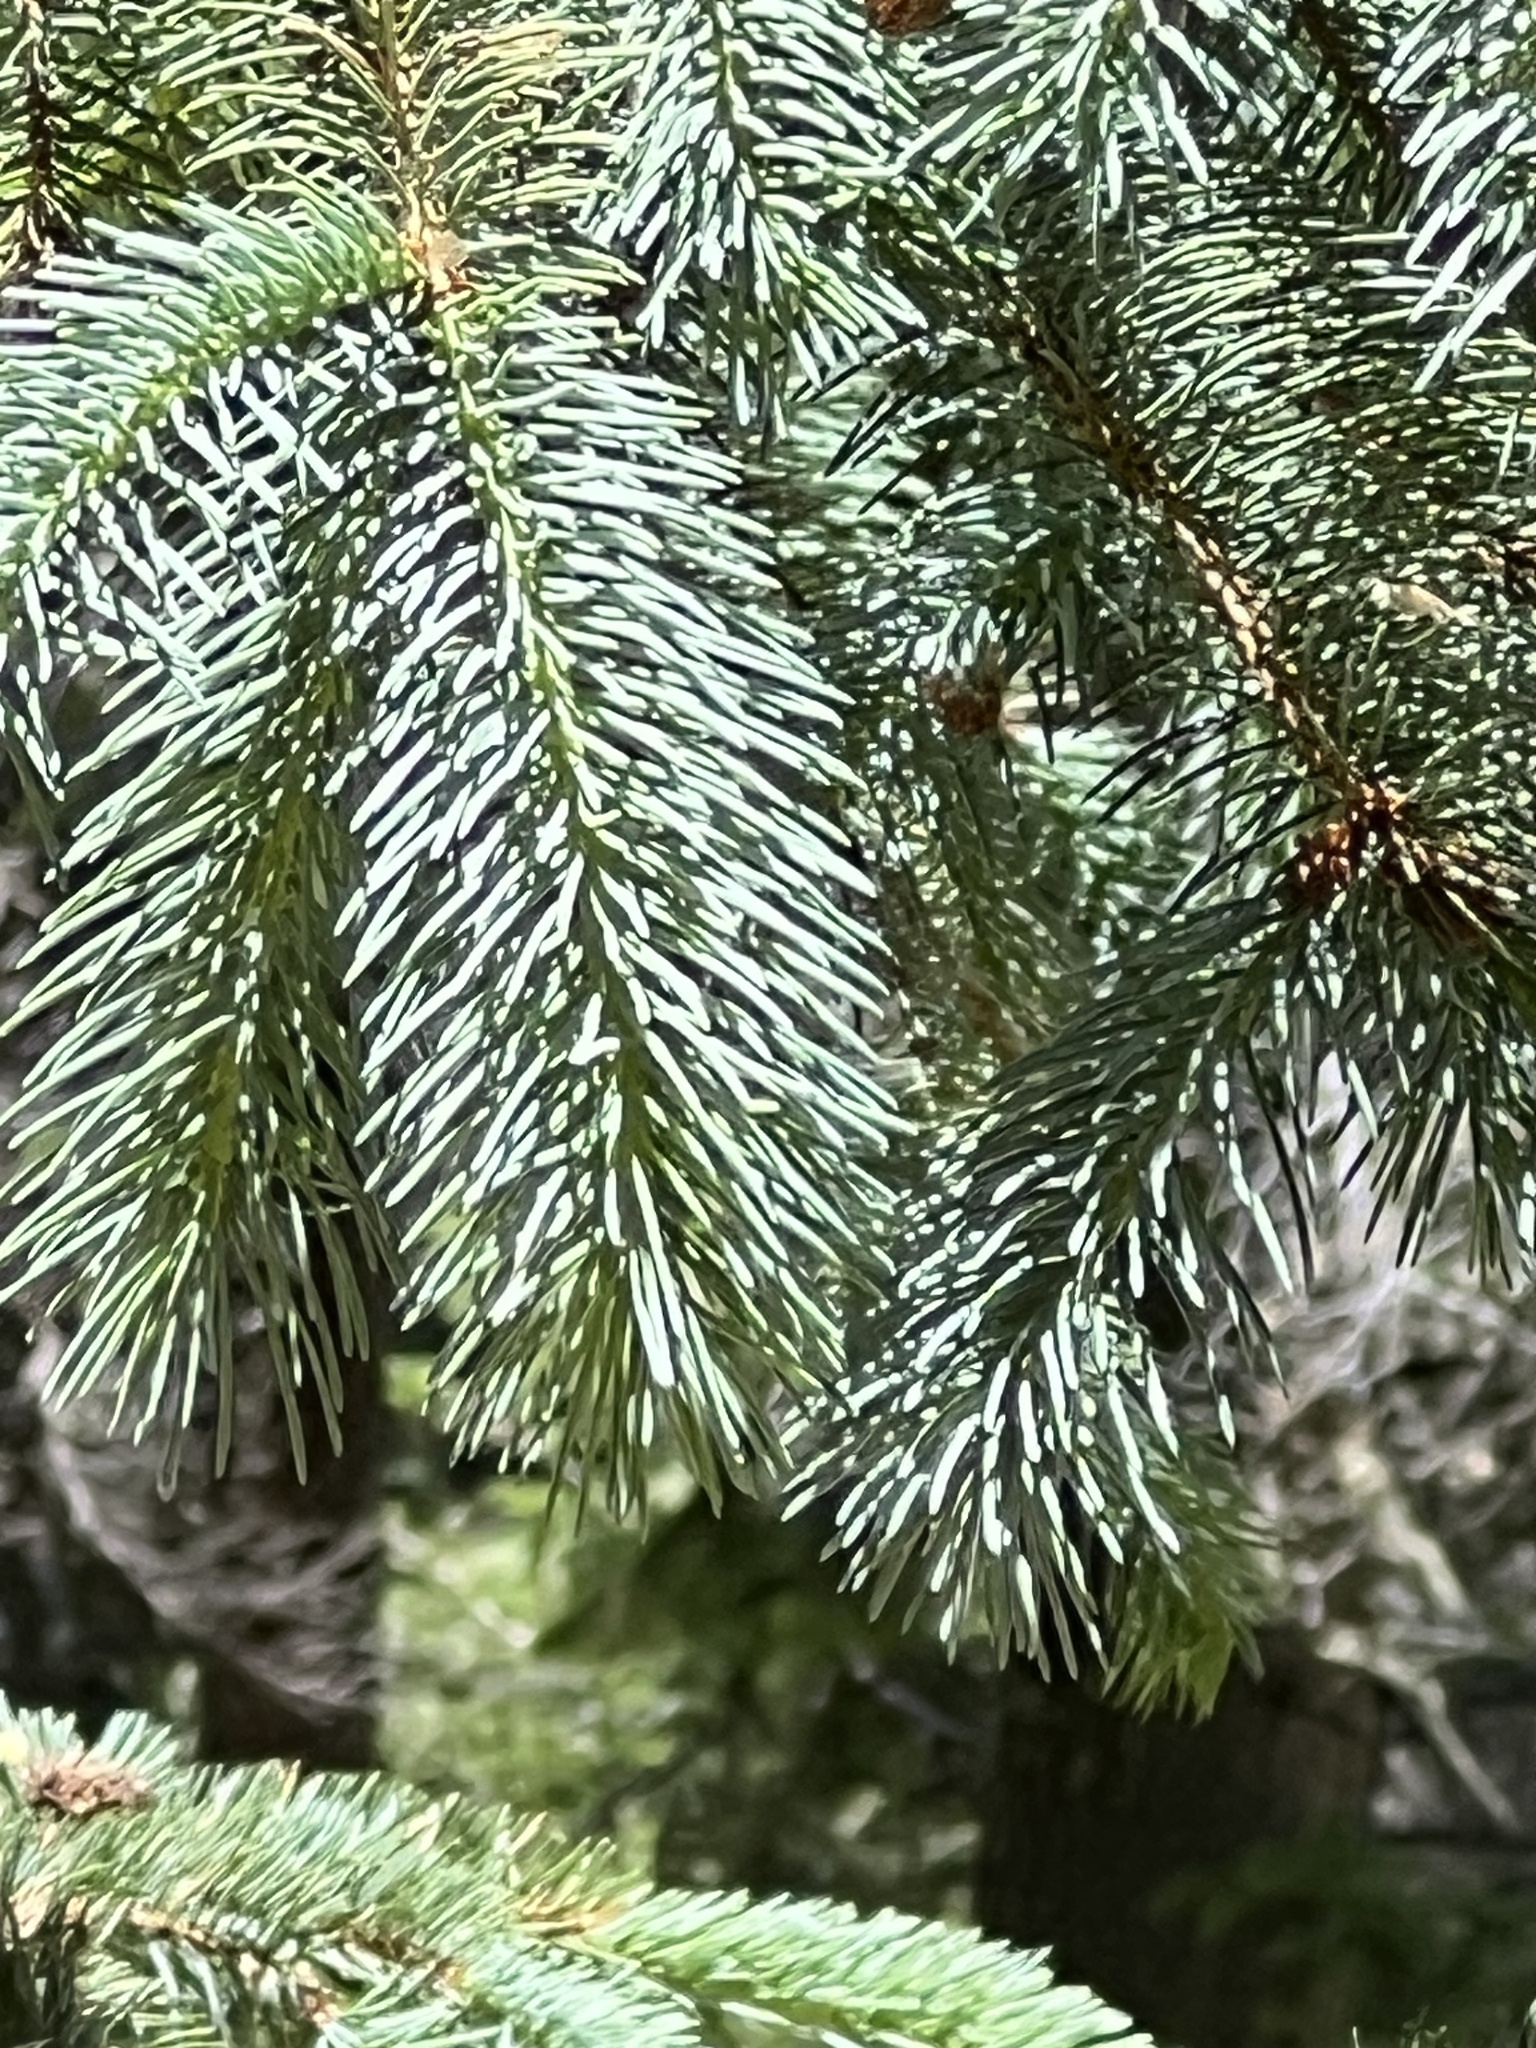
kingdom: Plantae
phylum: Tracheophyta
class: Pinopsida
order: Pinales
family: Pinaceae
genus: Picea
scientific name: Picea engelmannii
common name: Engelmann spruce
